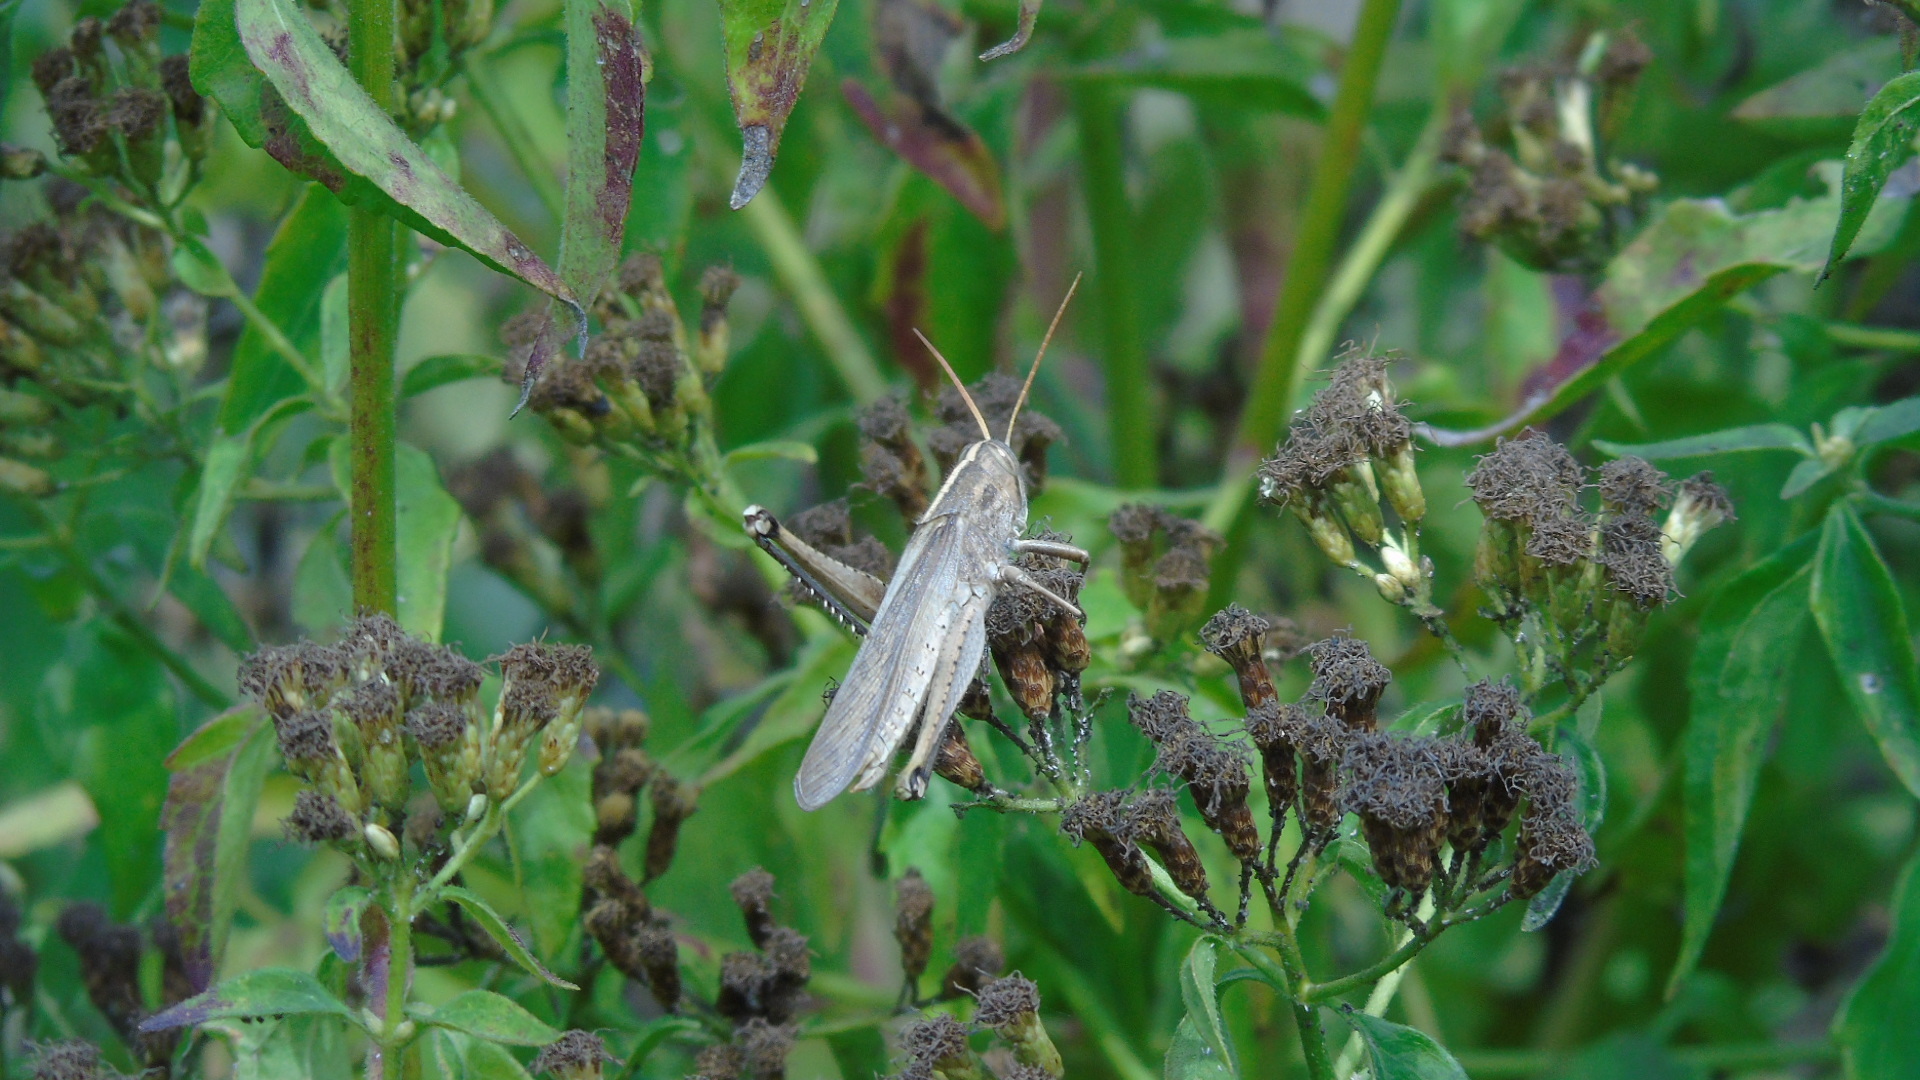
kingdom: Animalia
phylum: Arthropoda
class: Insecta
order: Orthoptera
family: Acrididae
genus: Schistocerca
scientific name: Schistocerca
